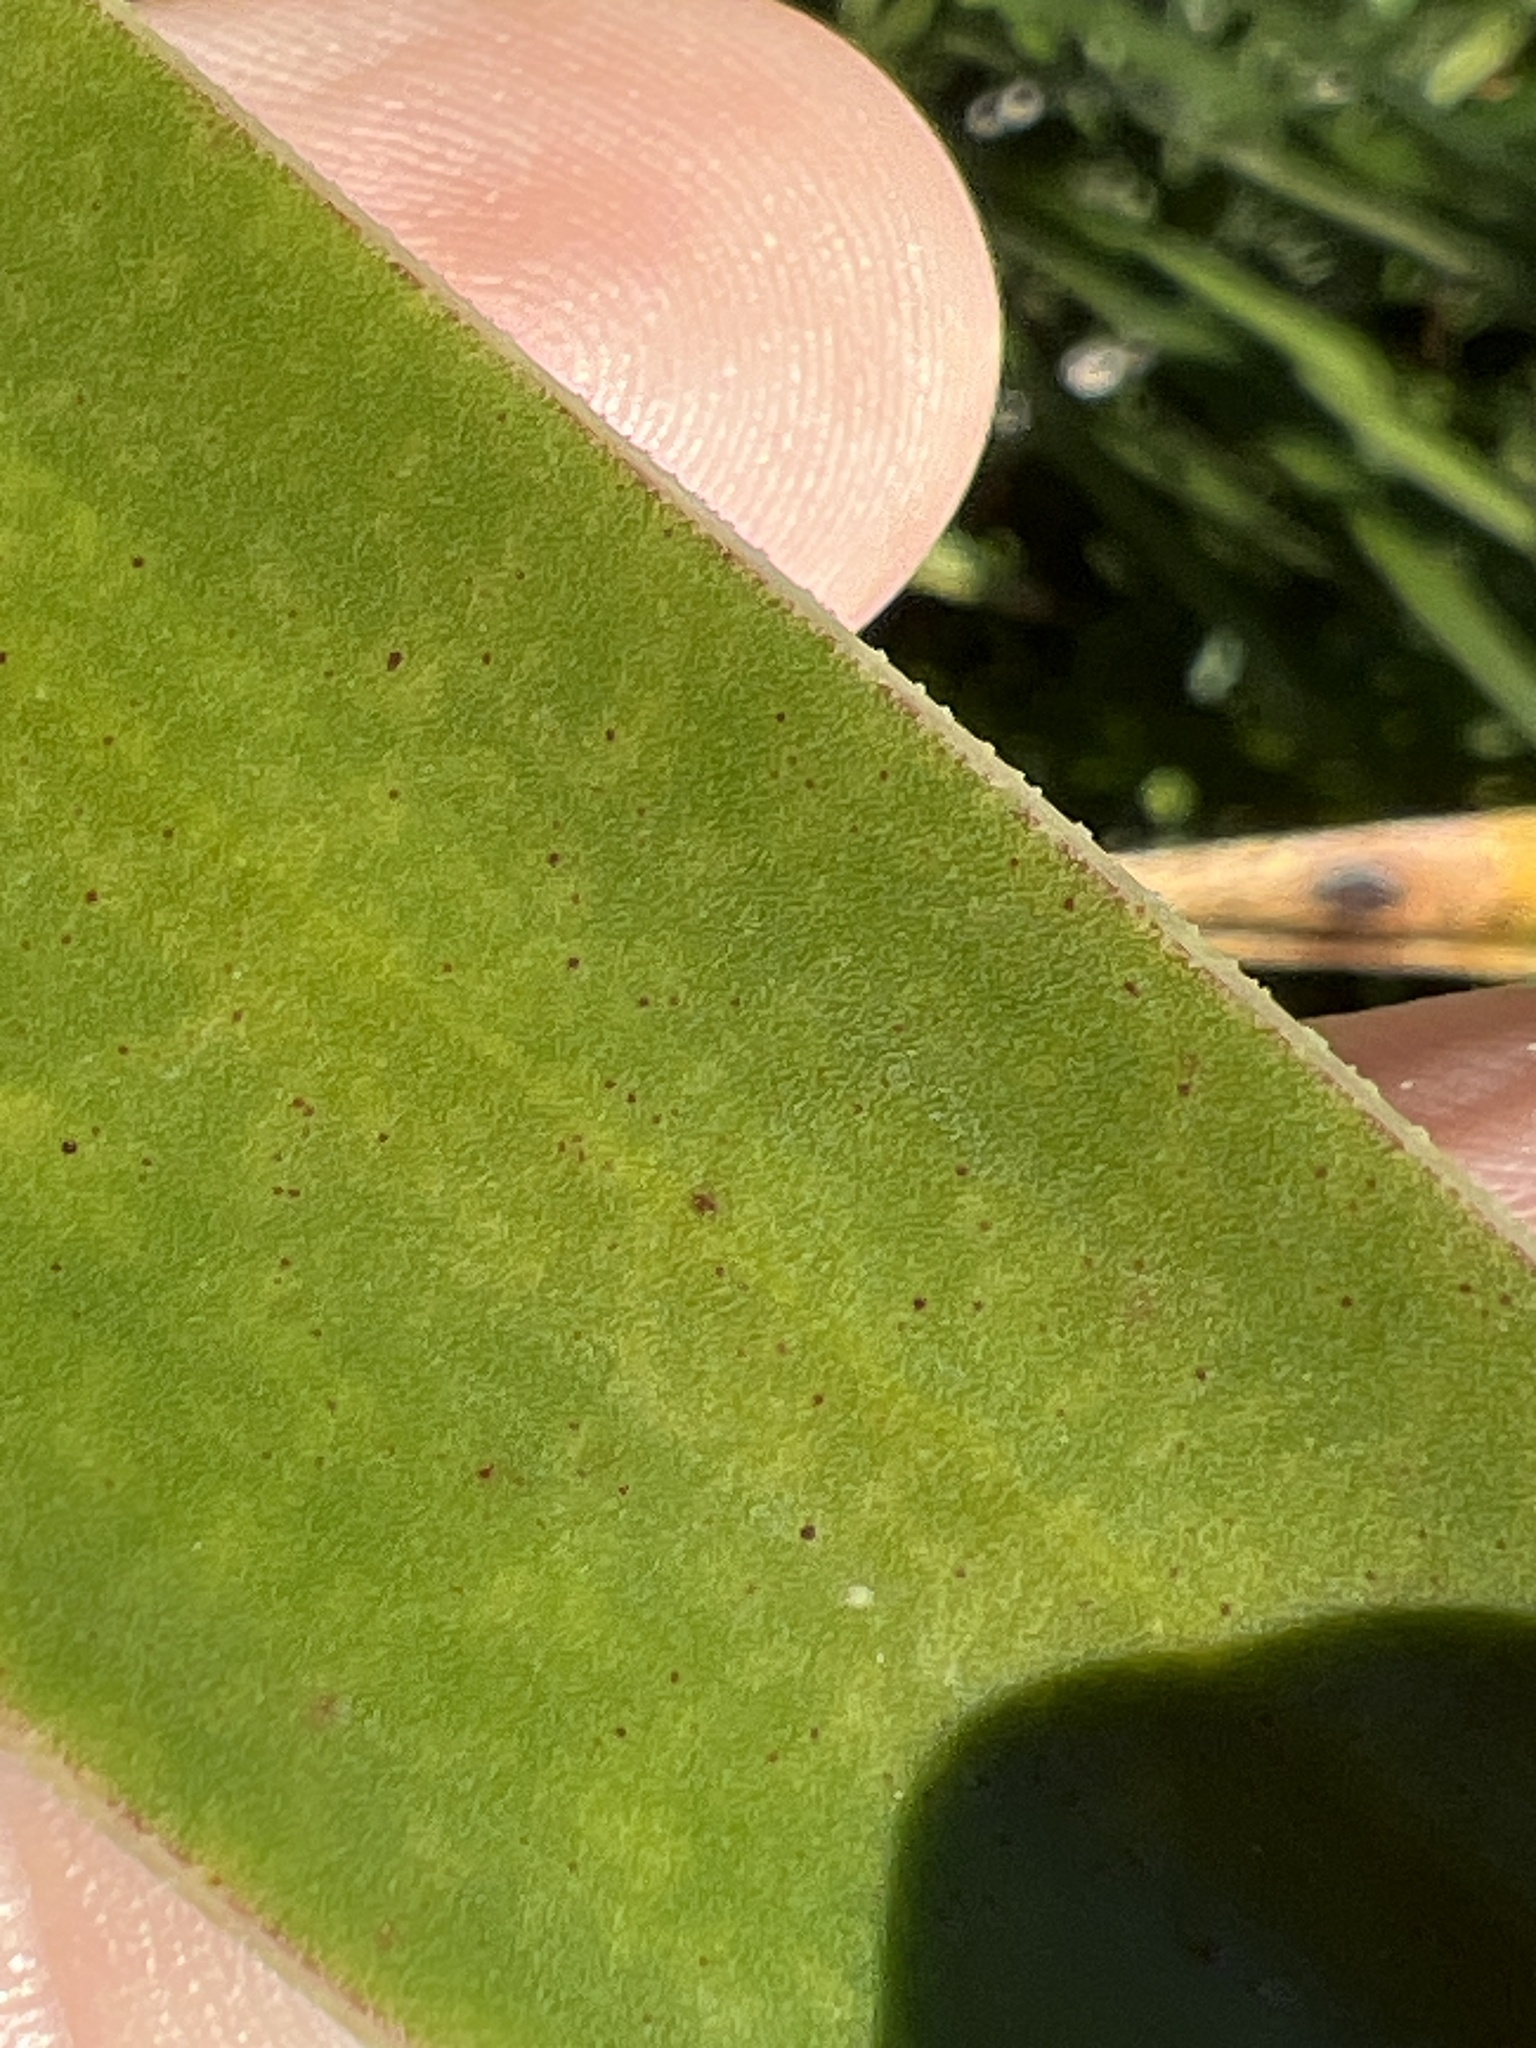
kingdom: Plantae
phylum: Tracheophyta
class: Liliopsida
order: Asparagales
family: Asparagaceae
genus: Yucca
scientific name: Yucca aloifolia
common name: Aloe yucca
